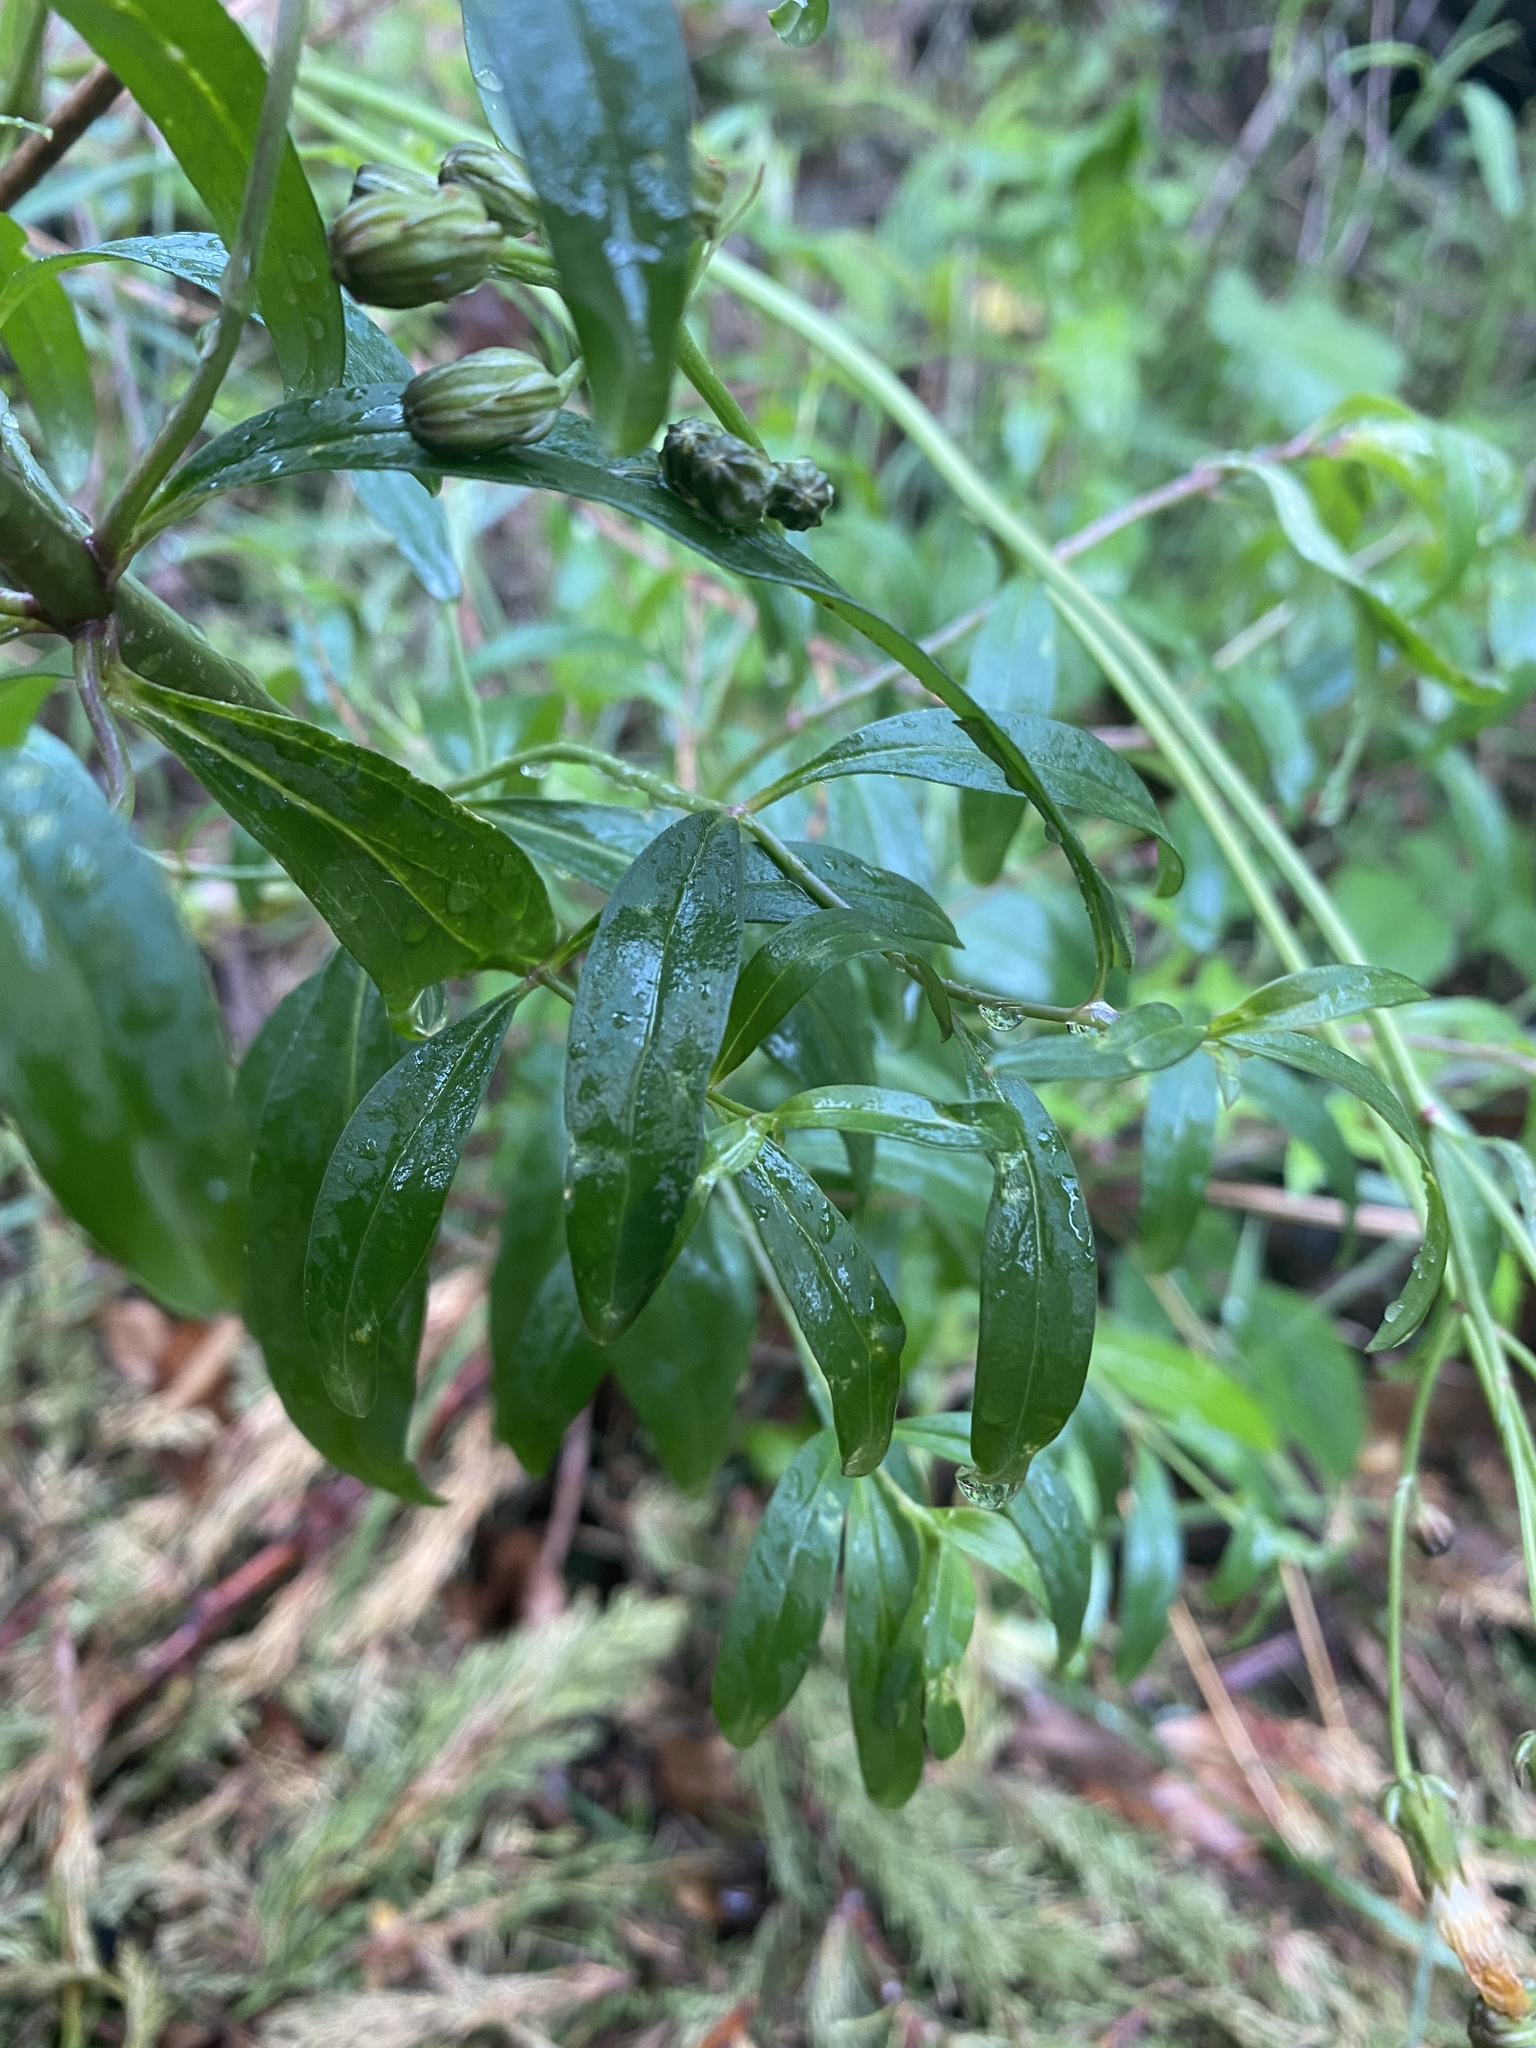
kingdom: Plantae
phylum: Tracheophyta
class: Magnoliopsida
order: Lamiales
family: Plantaginaceae
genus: Antirrhinum
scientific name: Antirrhinum majus
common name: Snapdragon
